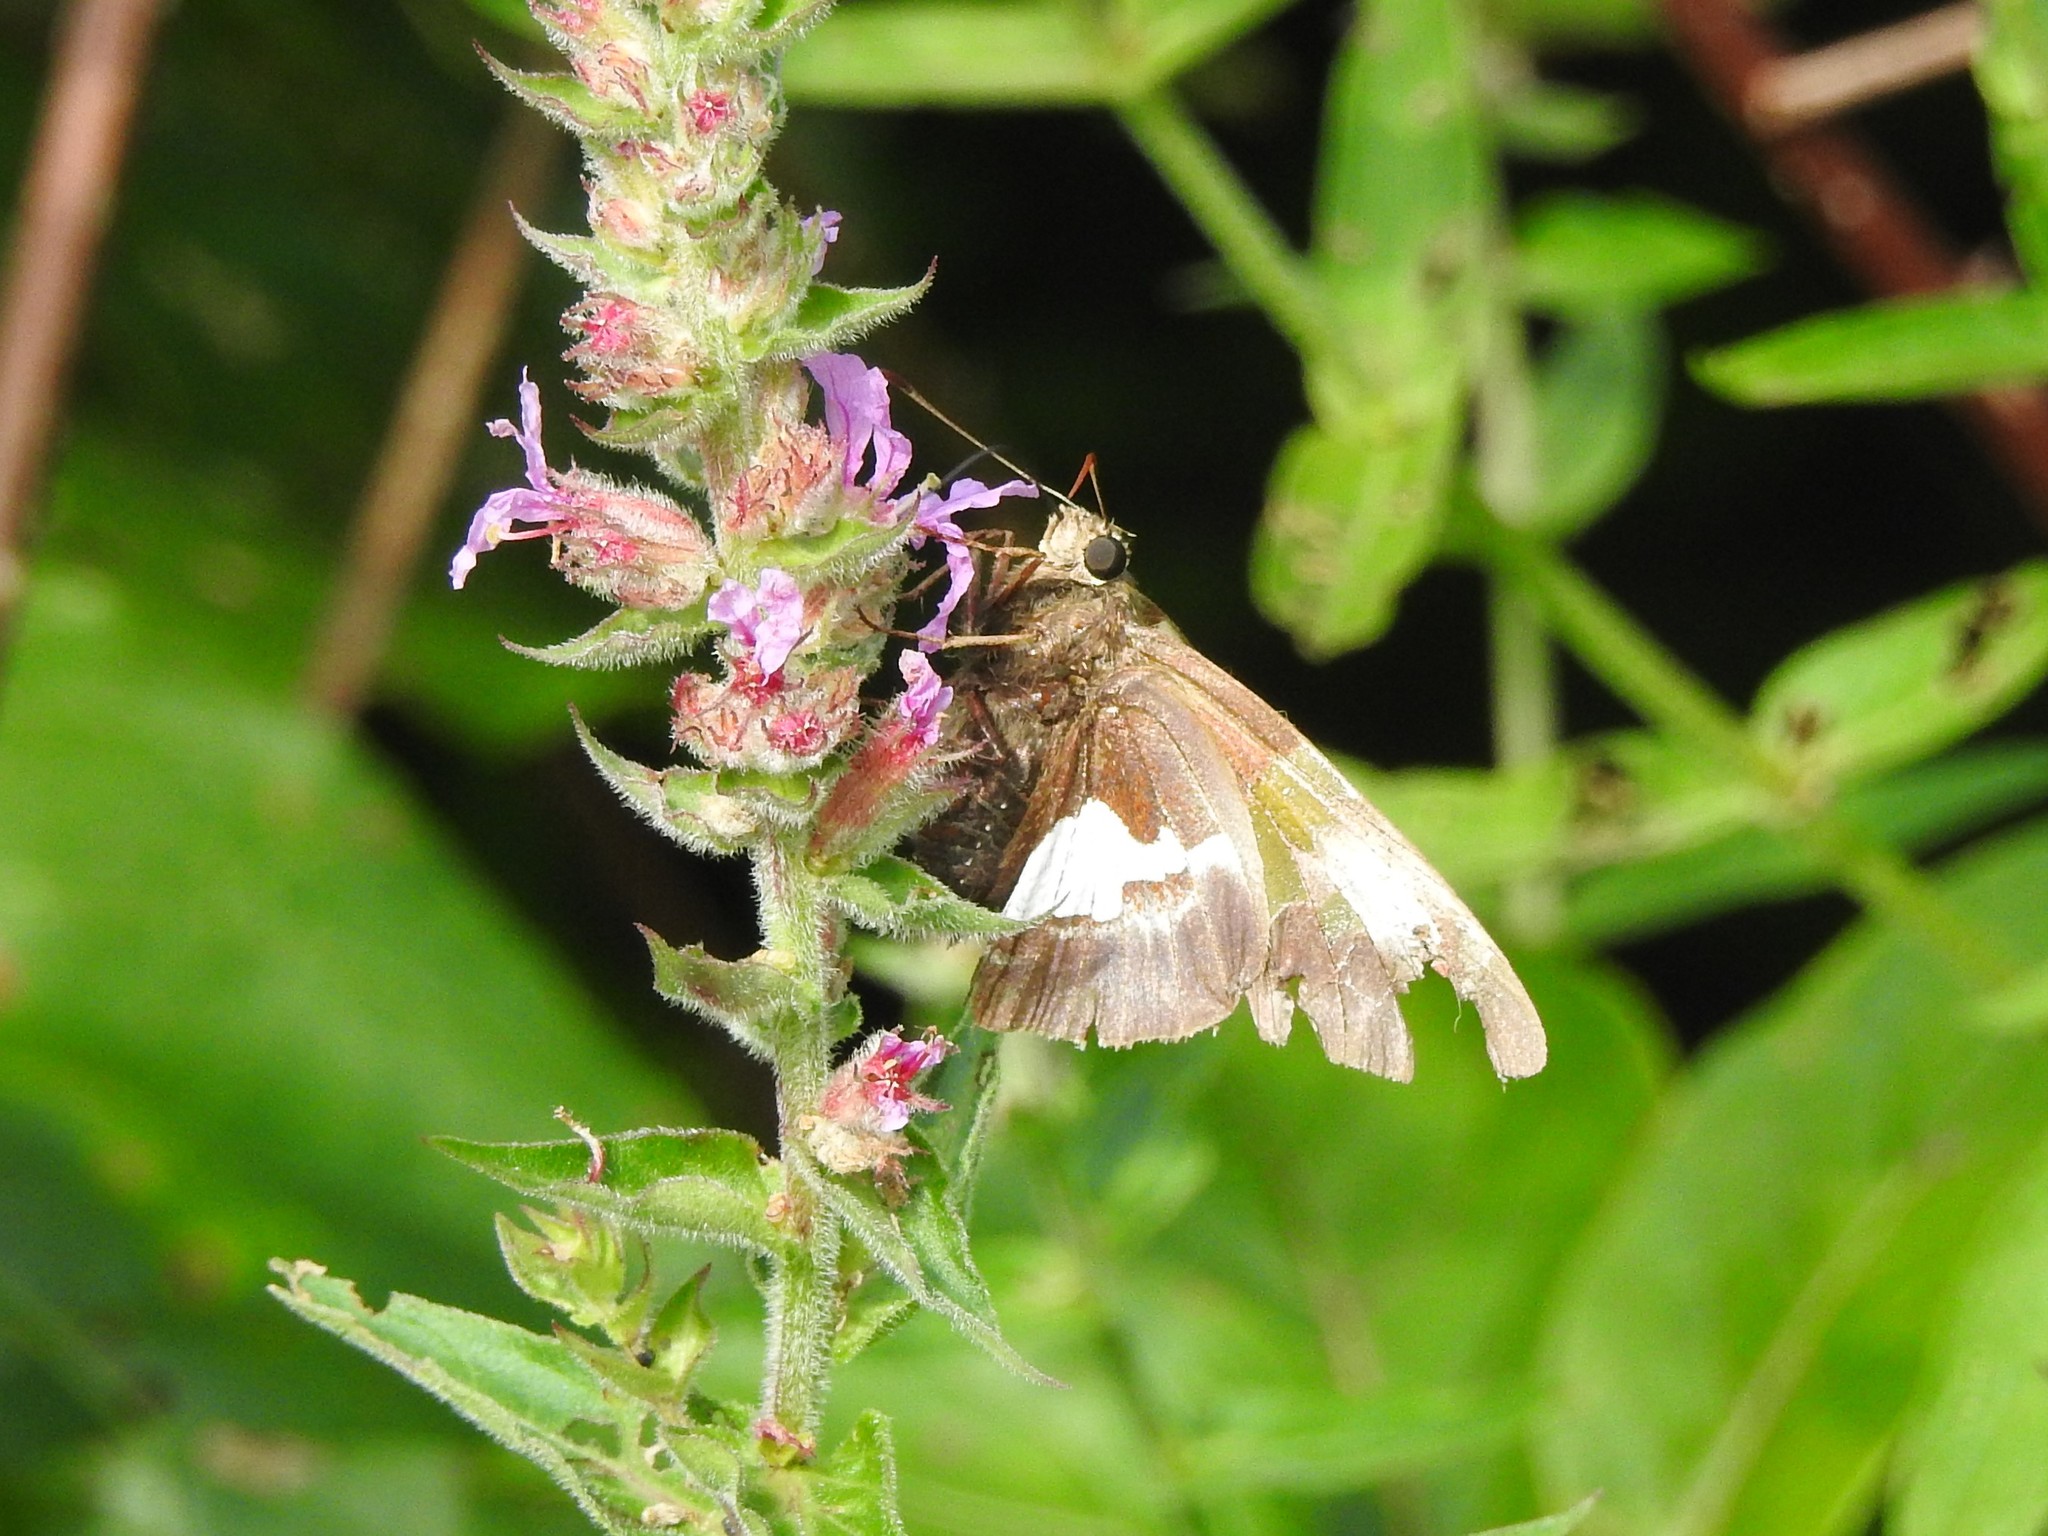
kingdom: Animalia
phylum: Arthropoda
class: Insecta
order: Lepidoptera
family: Hesperiidae
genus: Epargyreus
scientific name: Epargyreus clarus
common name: Silver-spotted skipper
